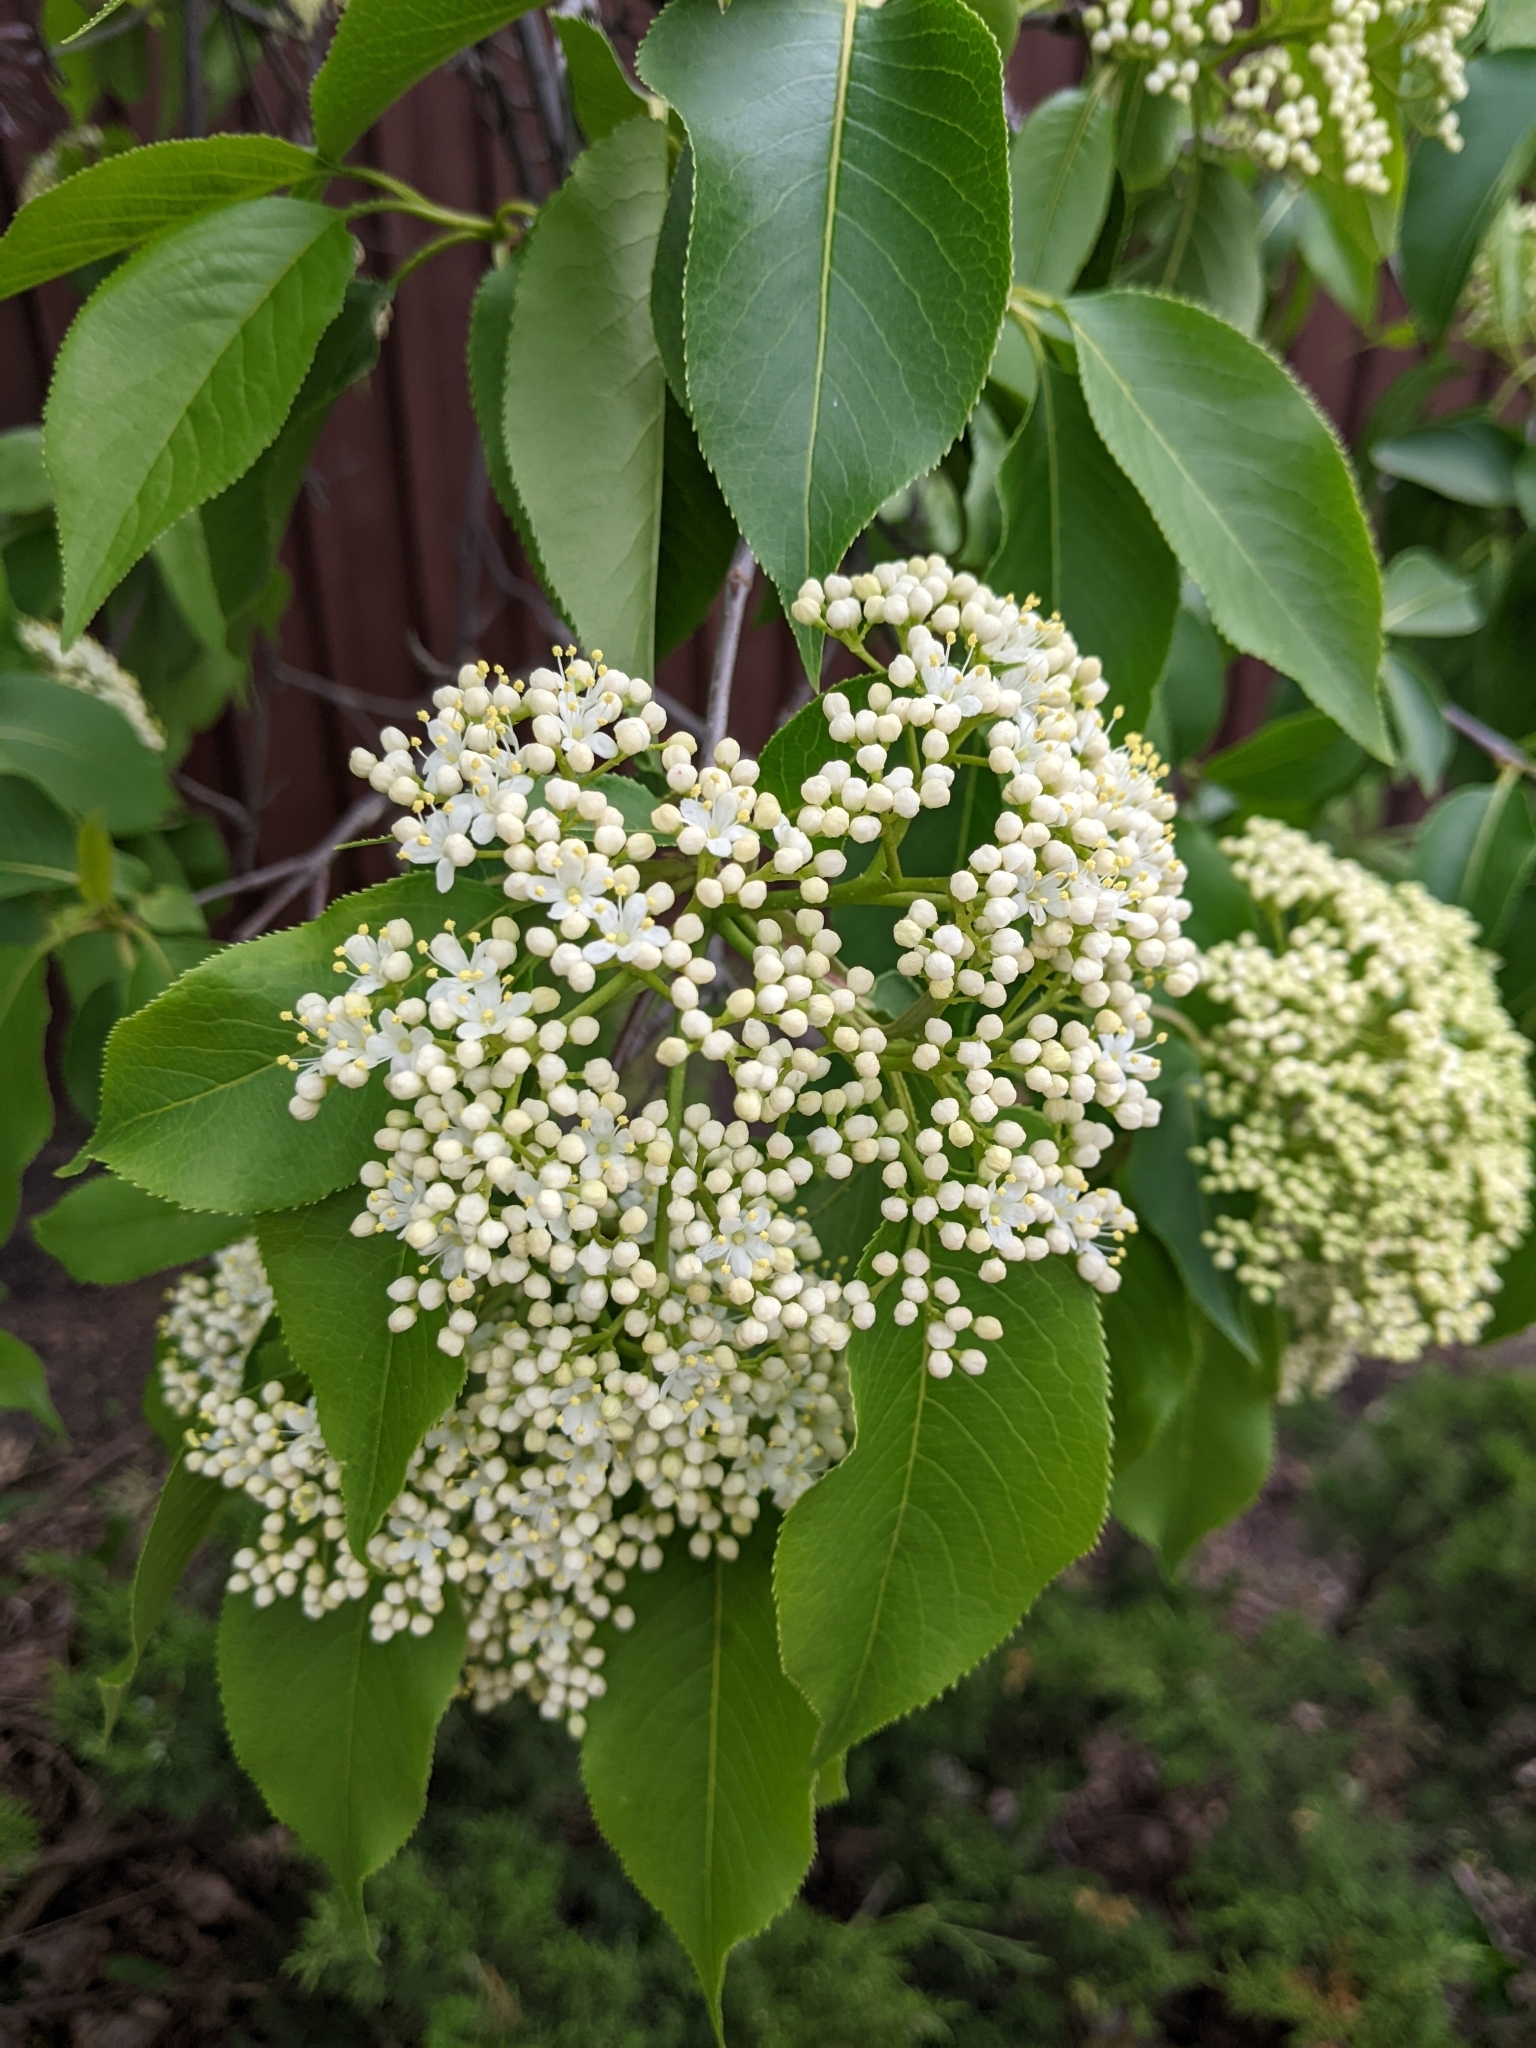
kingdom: Plantae
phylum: Tracheophyta
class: Magnoliopsida
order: Dipsacales
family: Viburnaceae
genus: Viburnum
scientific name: Viburnum lentago
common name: Black haw
